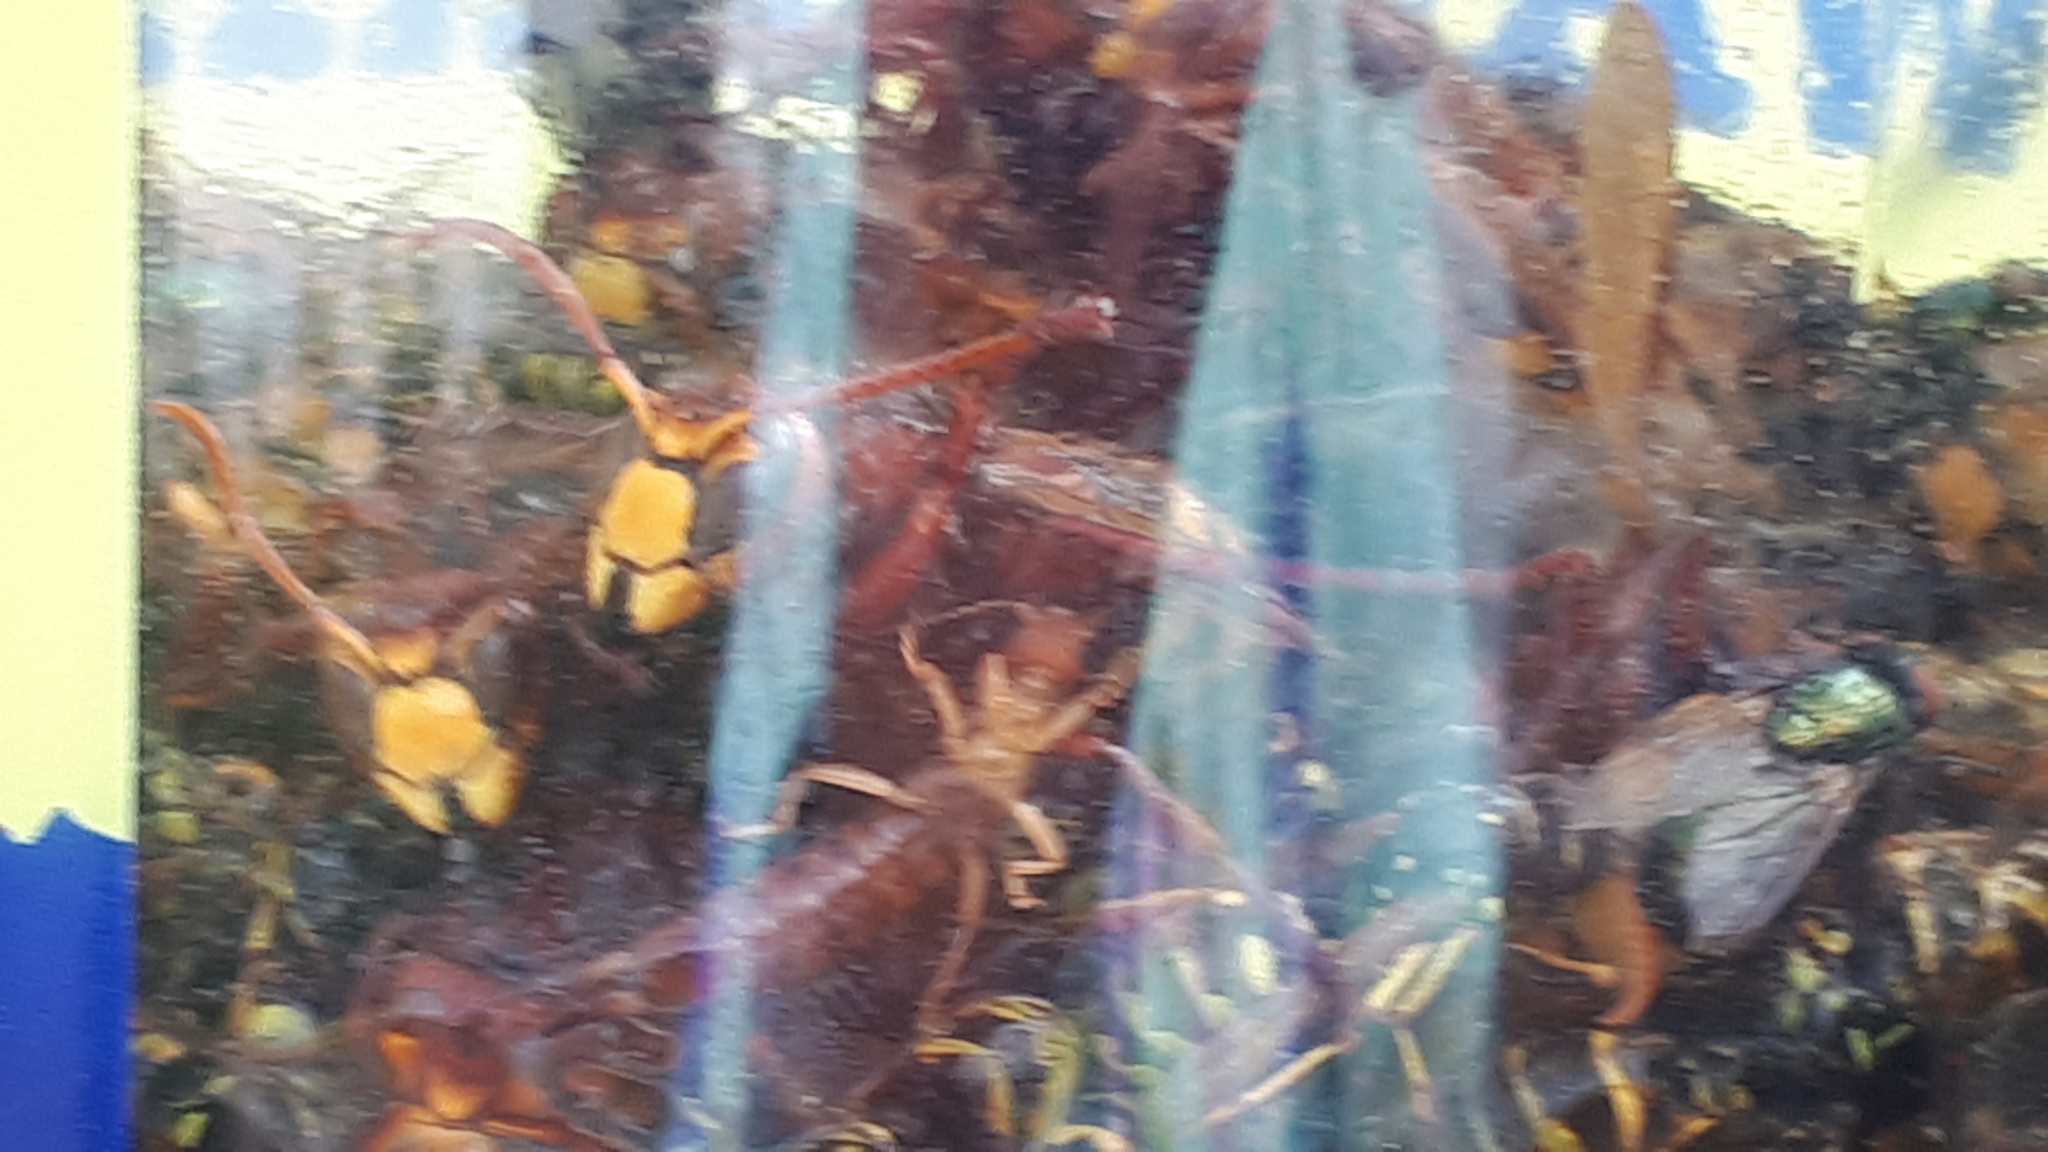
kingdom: Animalia
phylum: Arthropoda
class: Insecta
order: Hymenoptera
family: Vespidae
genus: Vespa
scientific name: Vespa crabro
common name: Hornet
